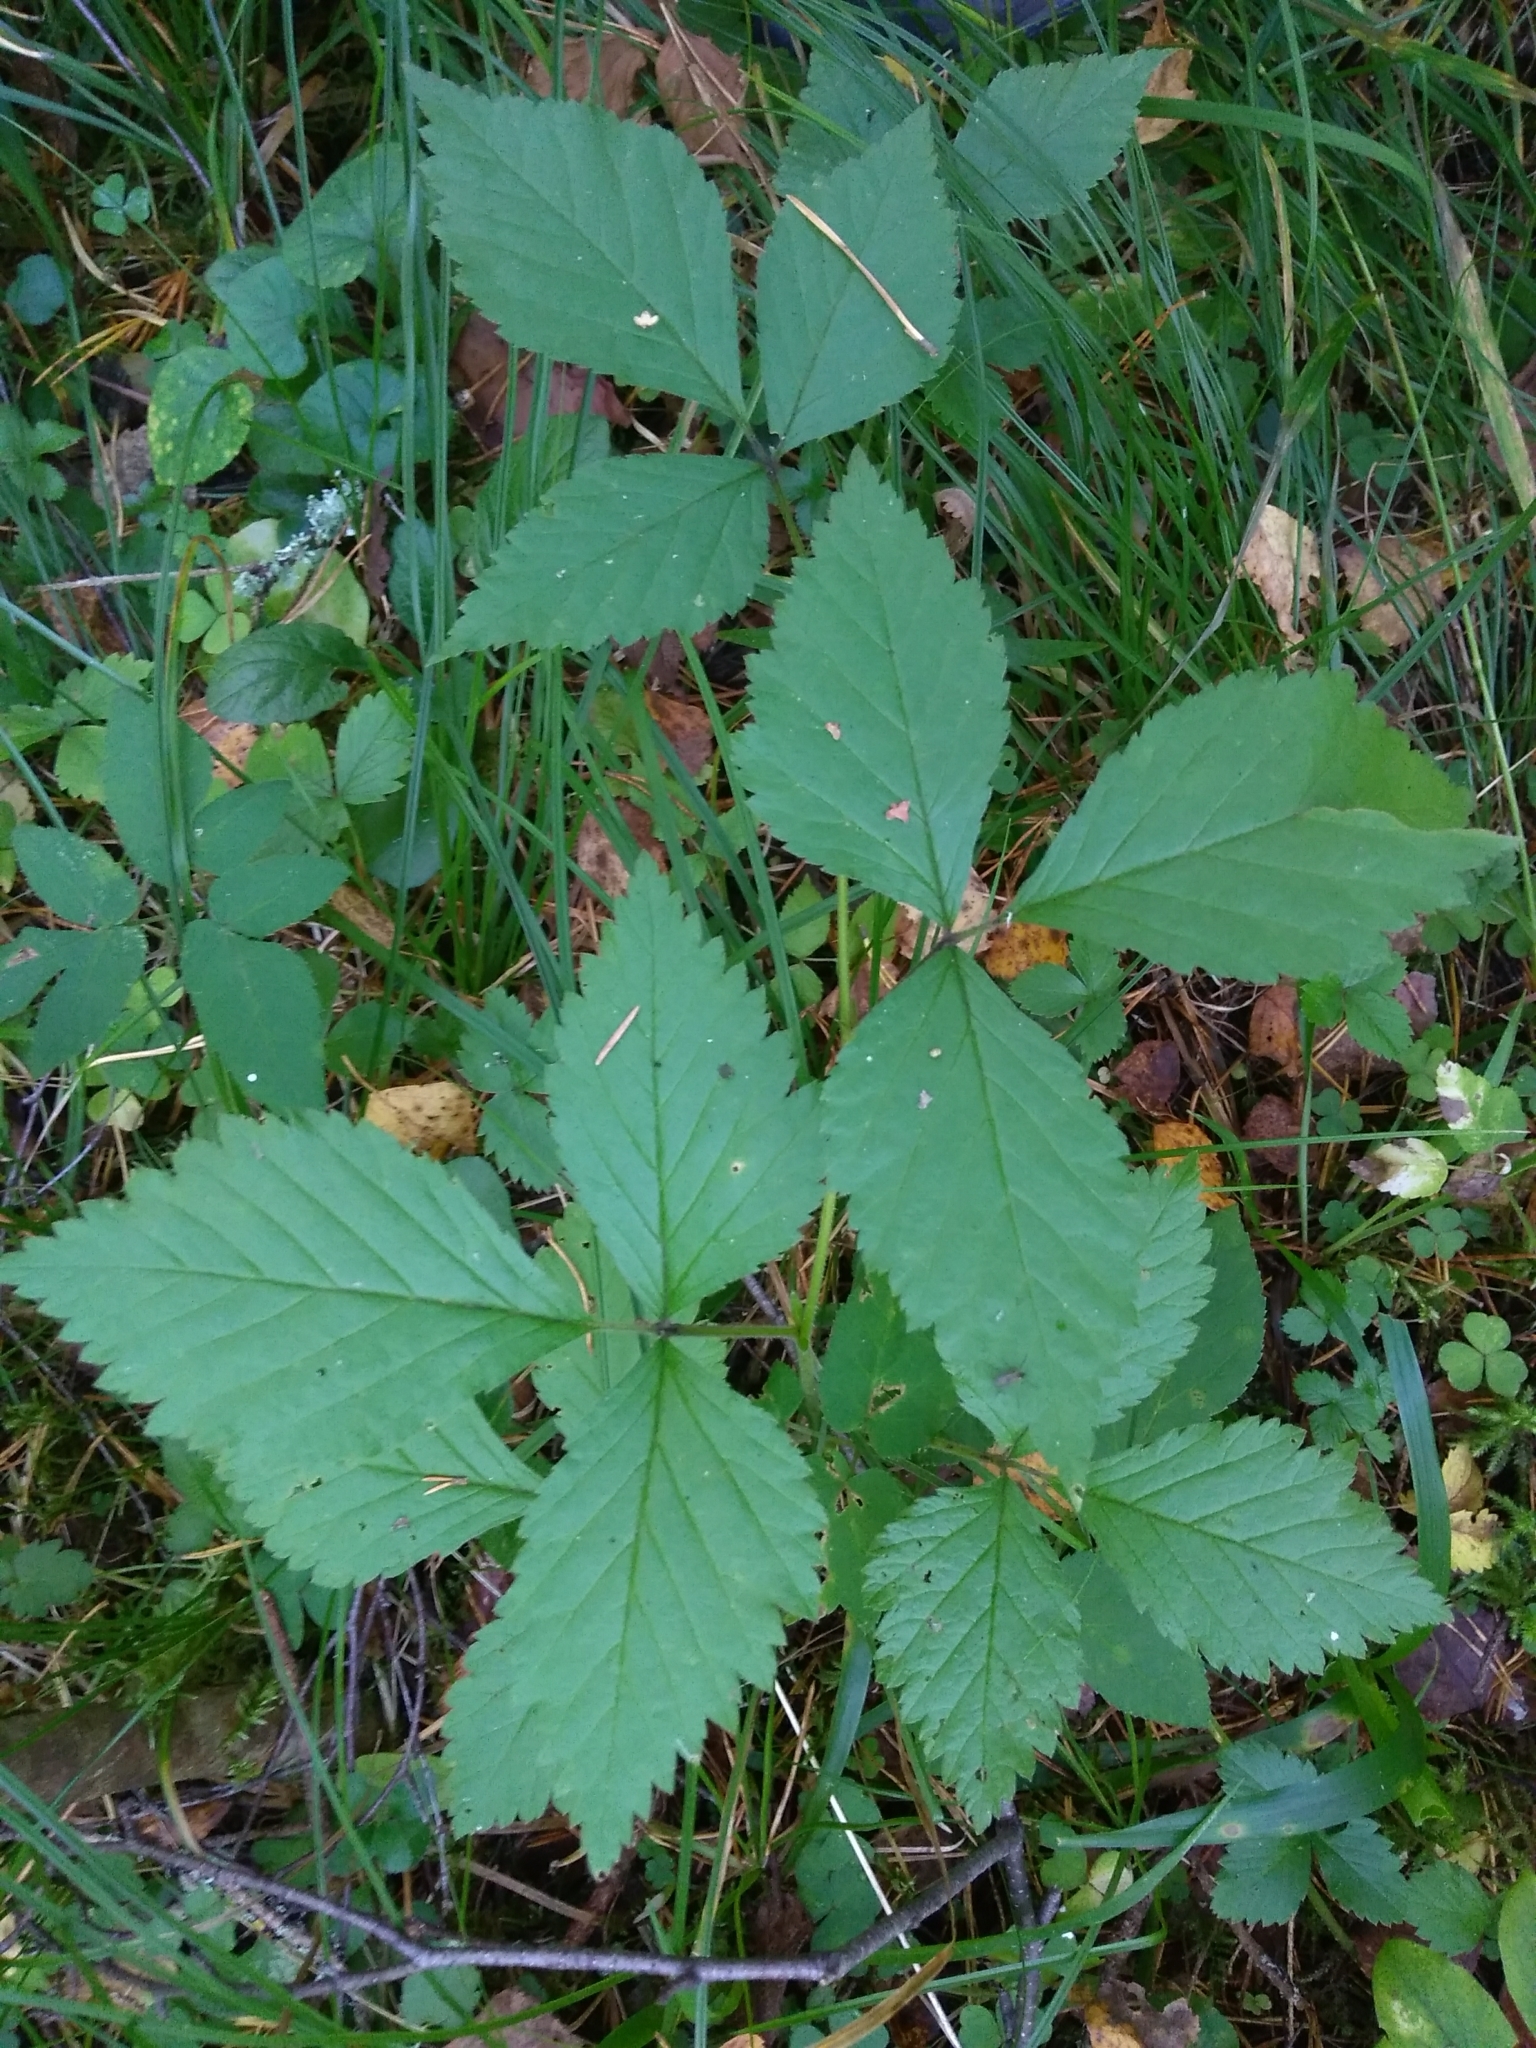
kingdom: Plantae
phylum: Tracheophyta
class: Magnoliopsida
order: Rosales
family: Rosaceae
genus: Rubus
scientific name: Rubus saxatilis
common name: Stone bramble
